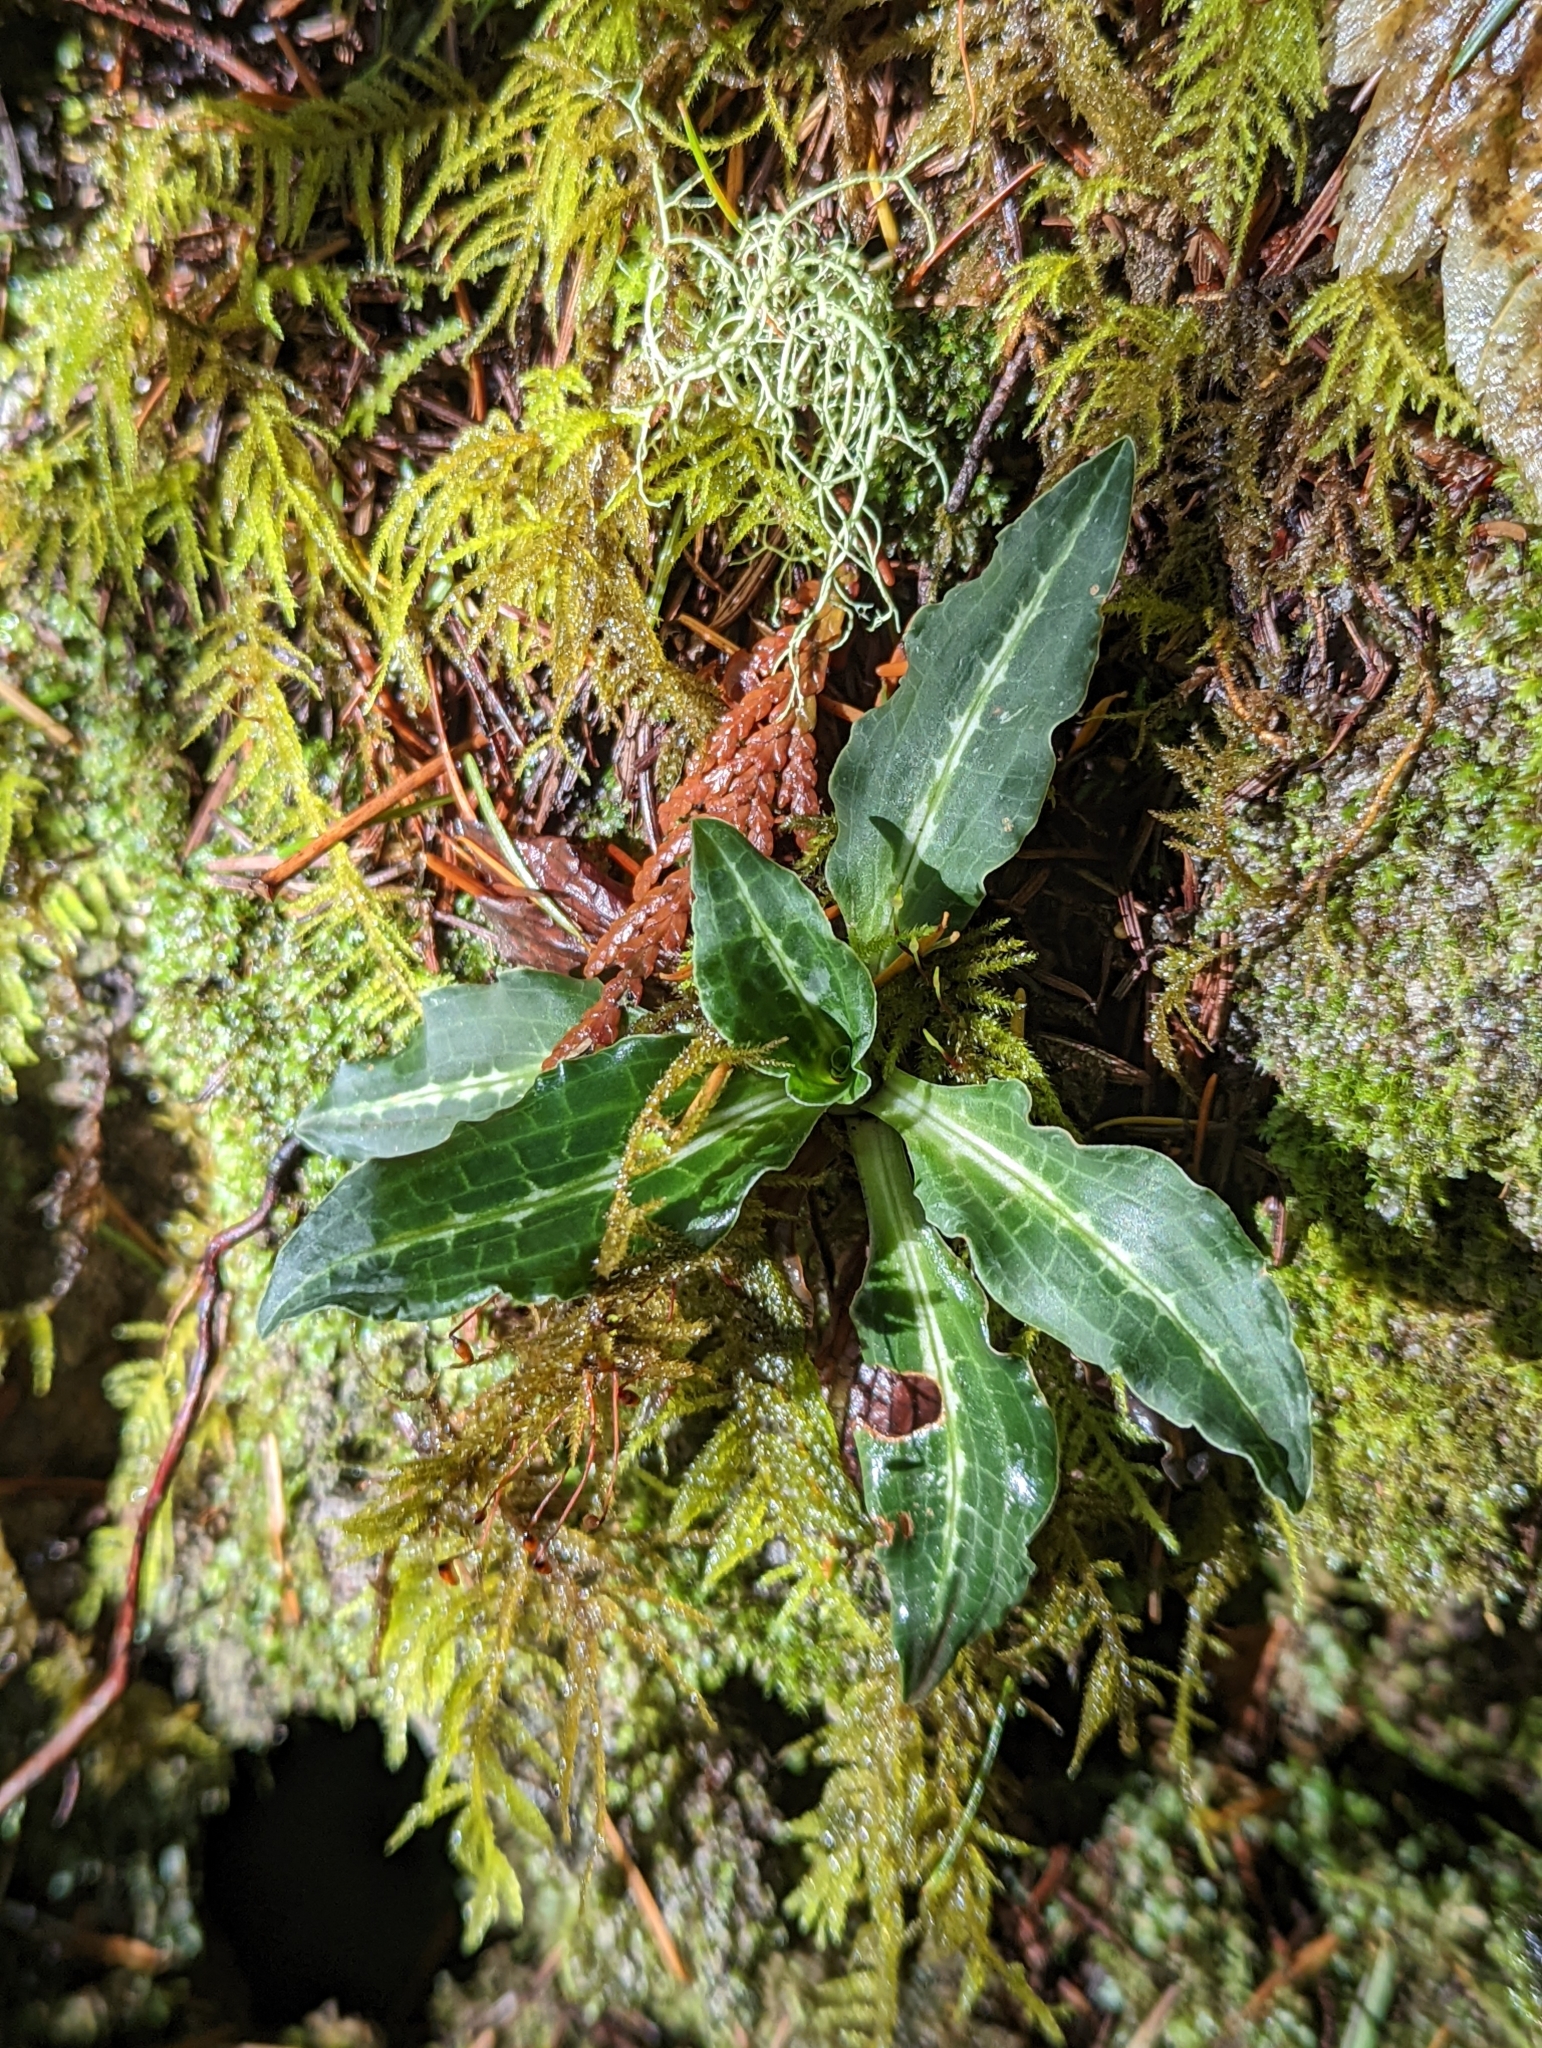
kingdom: Plantae
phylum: Tracheophyta
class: Liliopsida
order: Asparagales
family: Orchidaceae
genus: Goodyera
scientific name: Goodyera oblongifolia
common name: Giant rattlesnake-plantain
